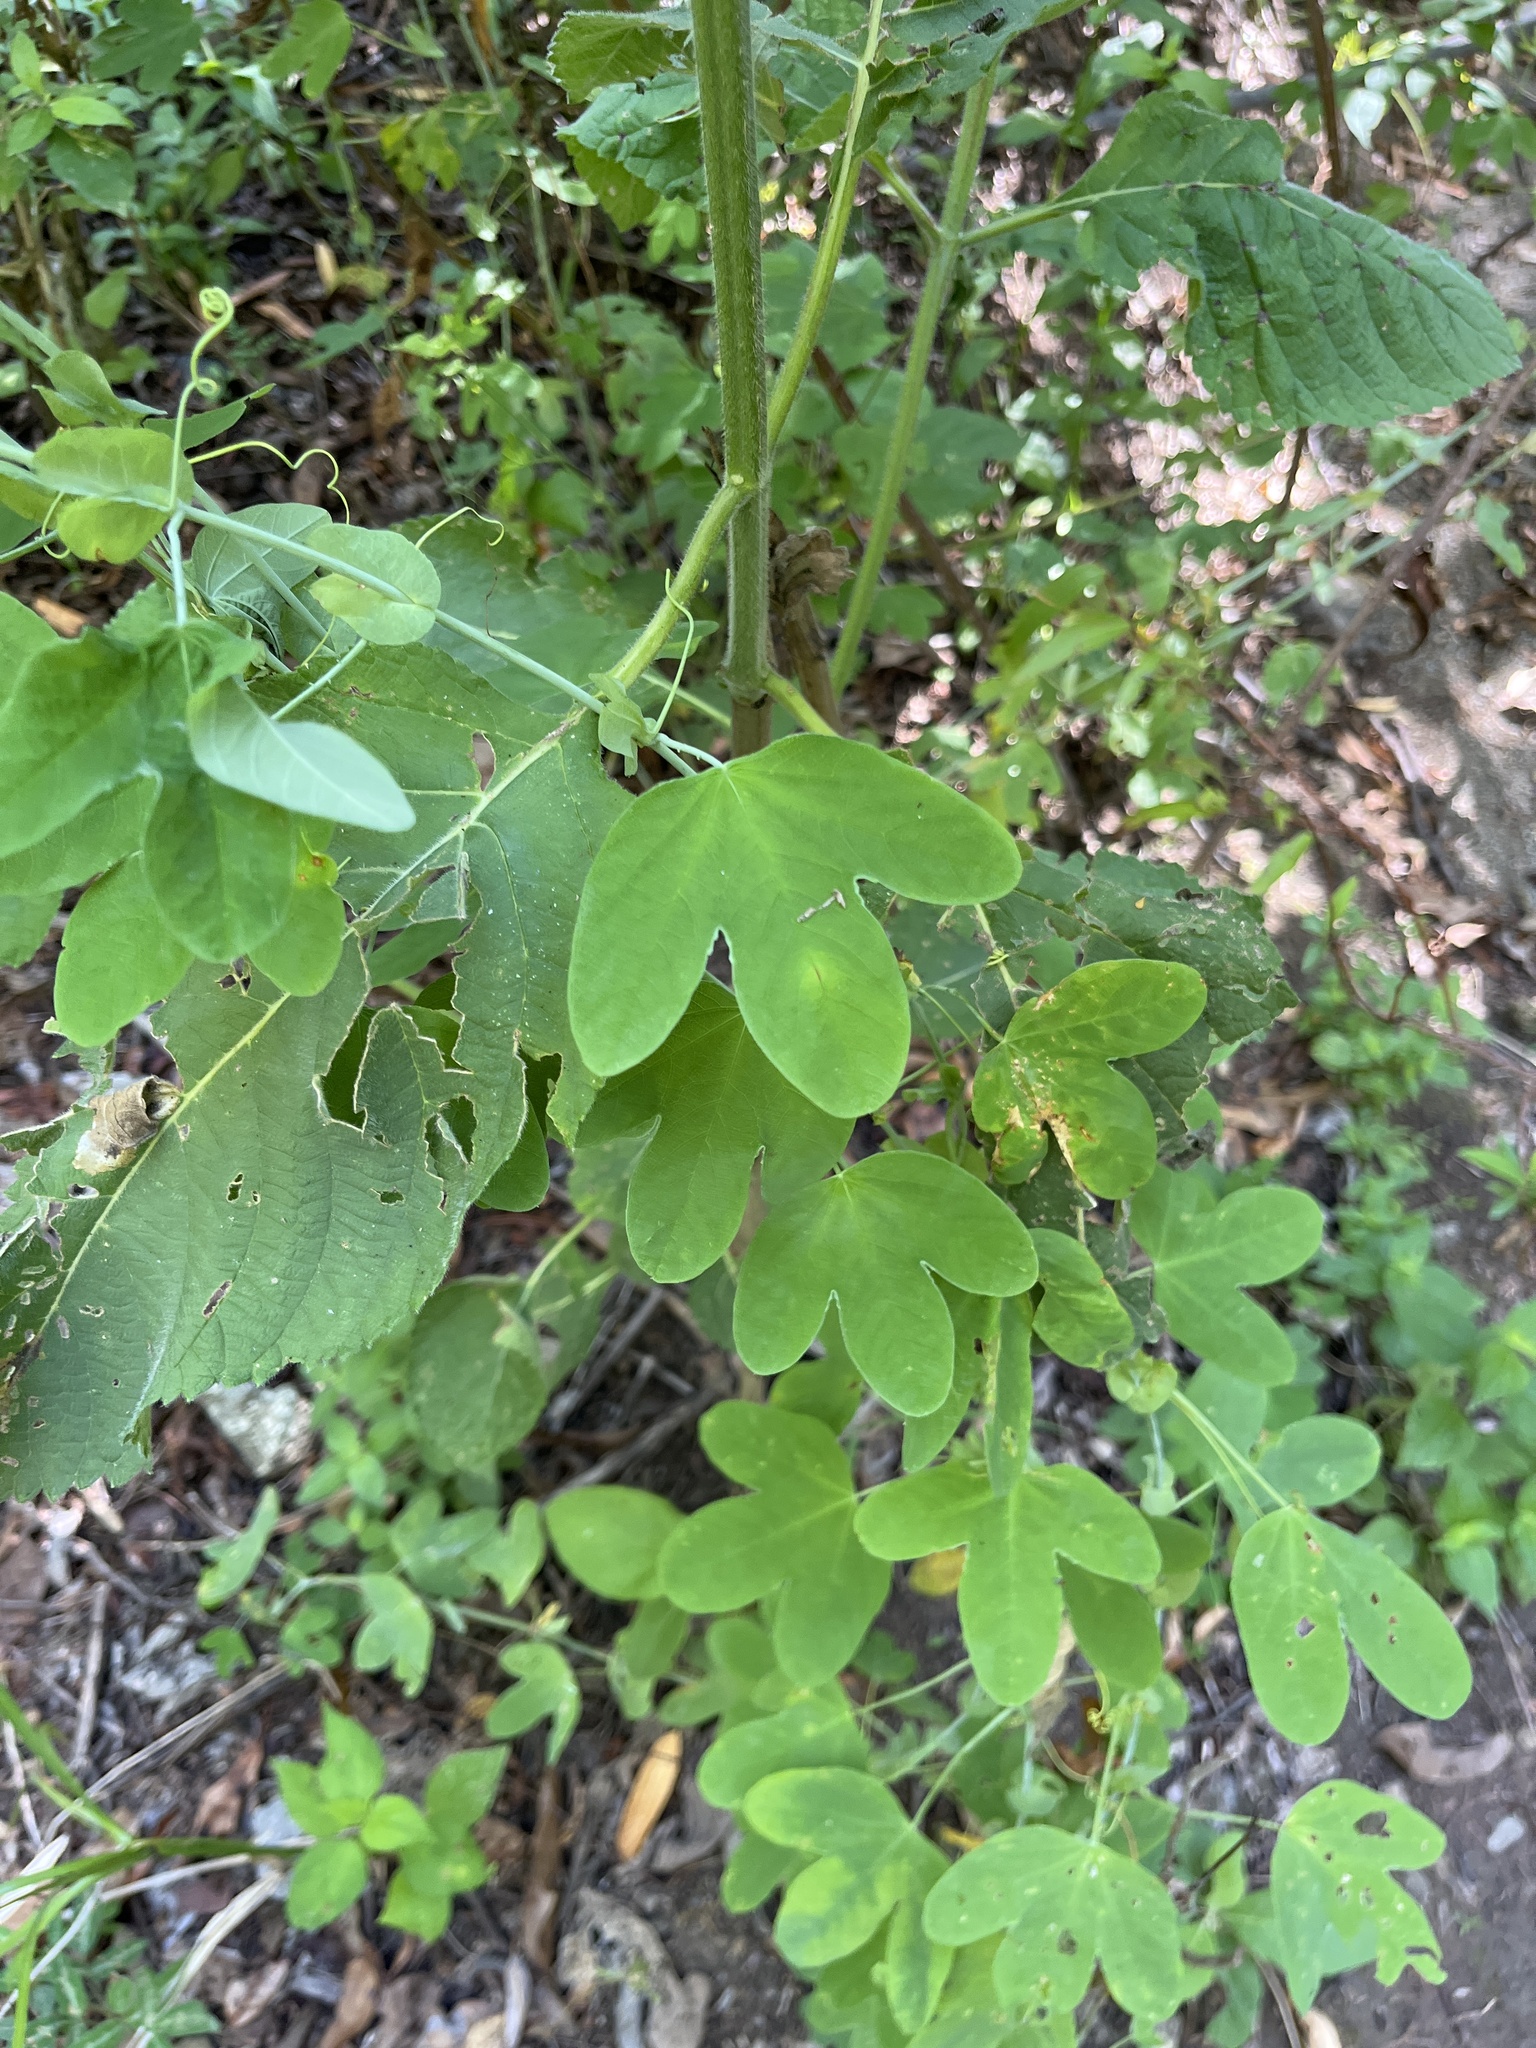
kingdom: Plantae
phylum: Tracheophyta
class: Magnoliopsida
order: Malpighiales
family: Passifloraceae
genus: Passiflora
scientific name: Passiflora subpeltata
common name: White passionflower
